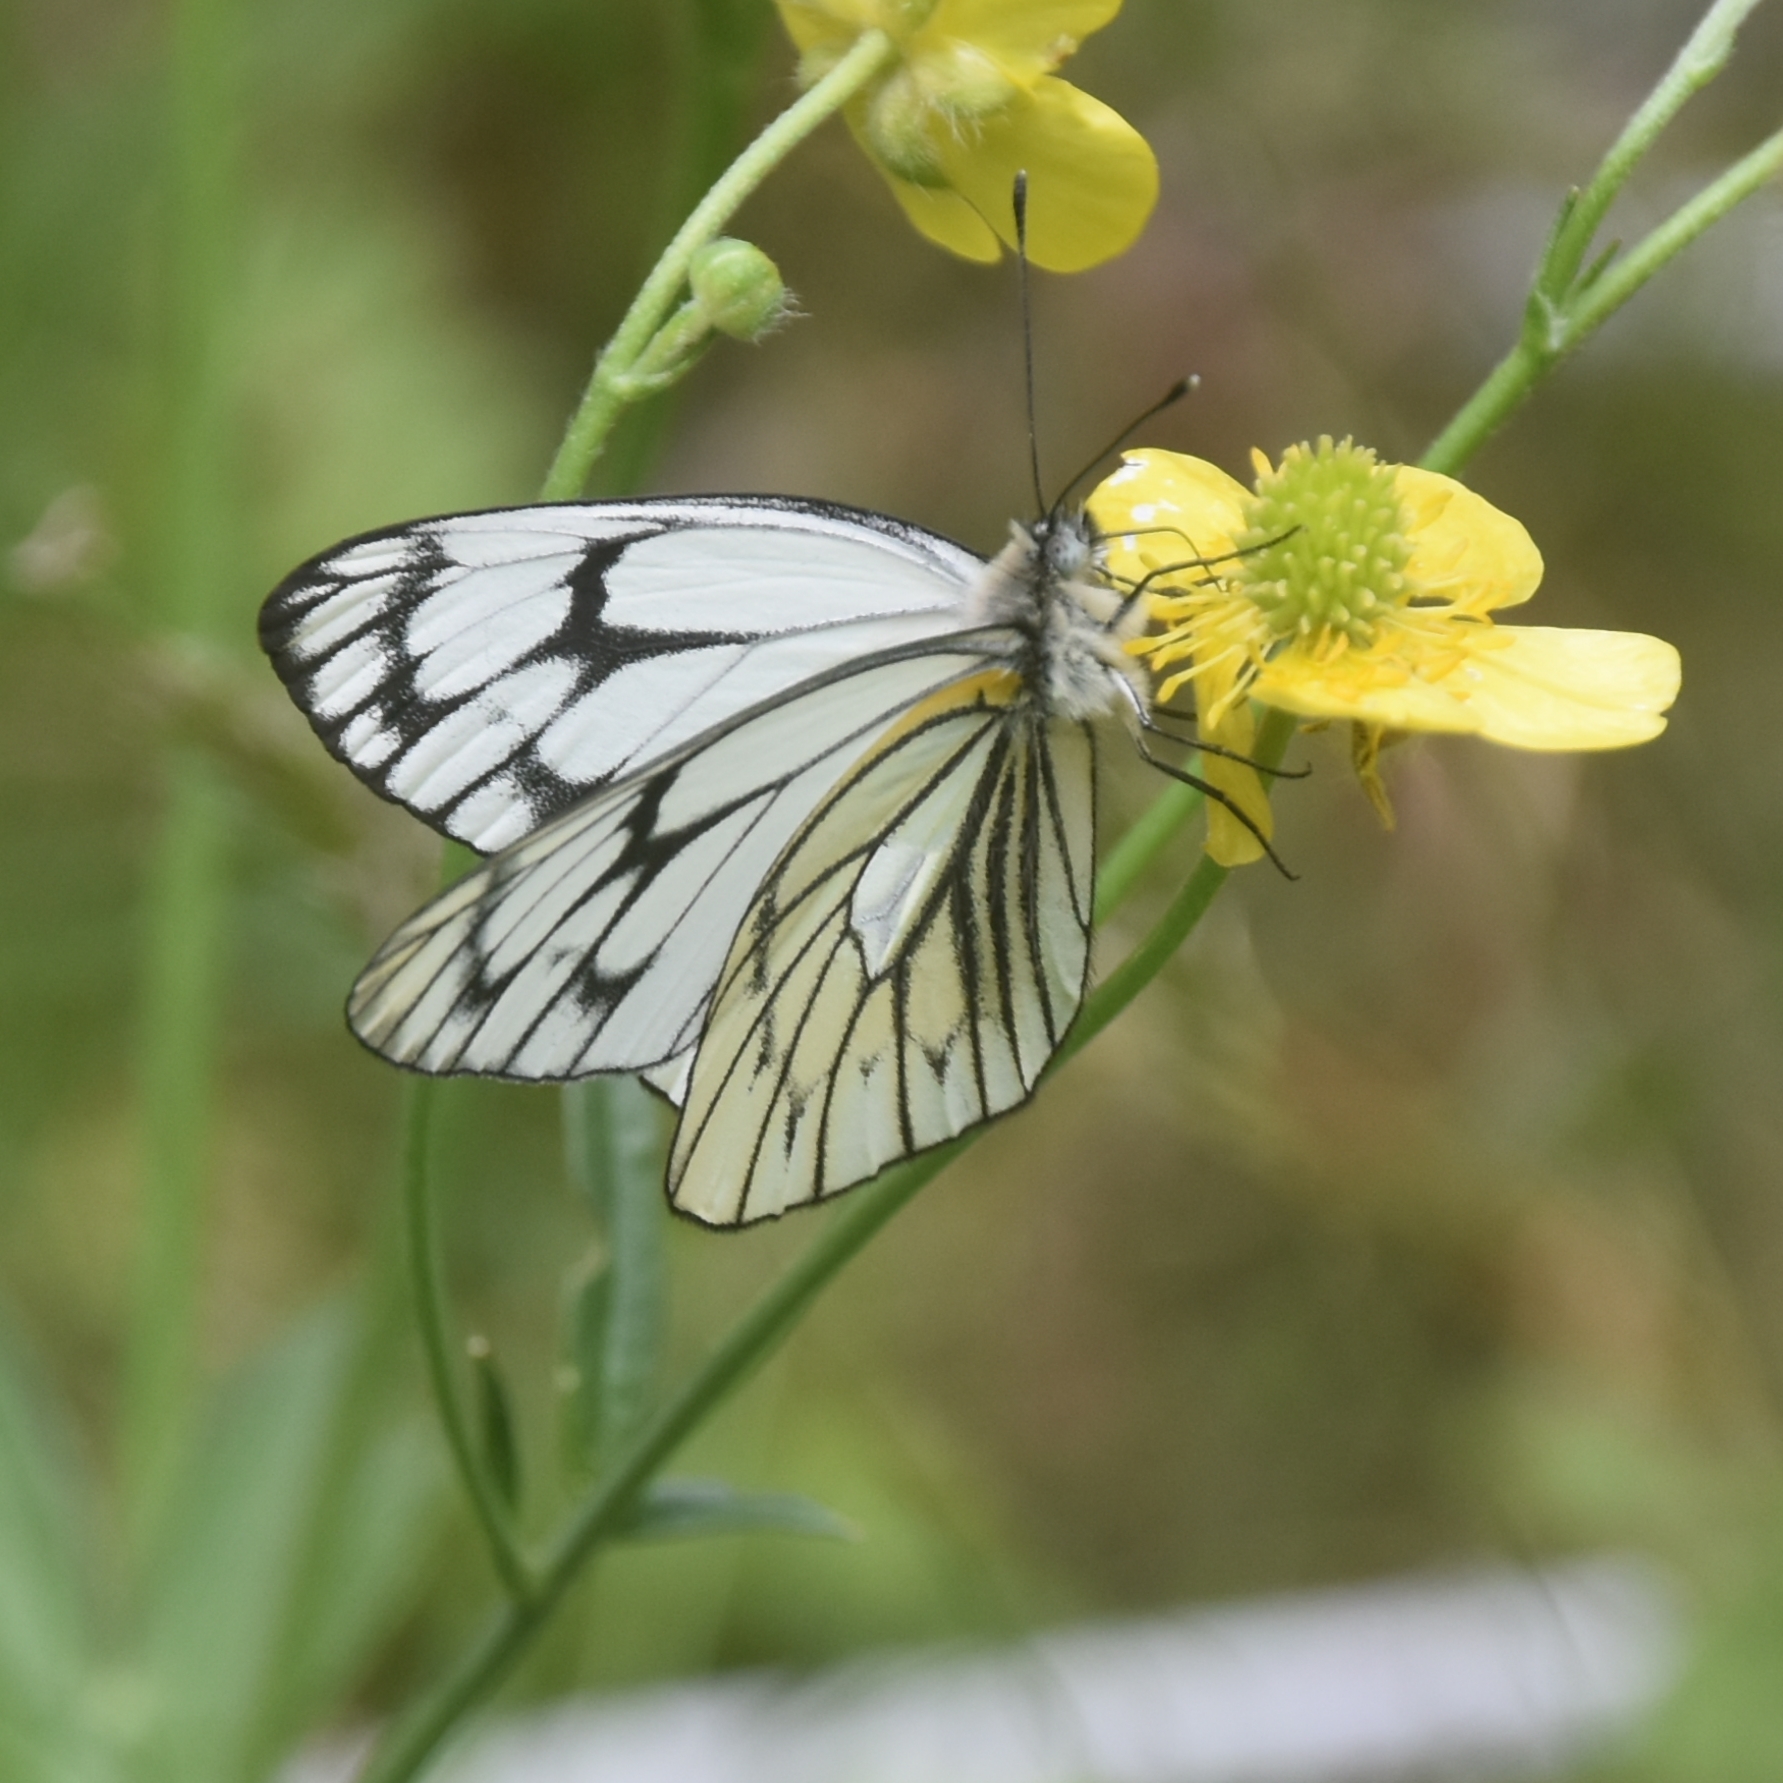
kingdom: Animalia
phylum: Arthropoda
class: Insecta
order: Lepidoptera
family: Pieridae
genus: Aporia
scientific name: Aporia leucodice
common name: Himalayan blackvein
